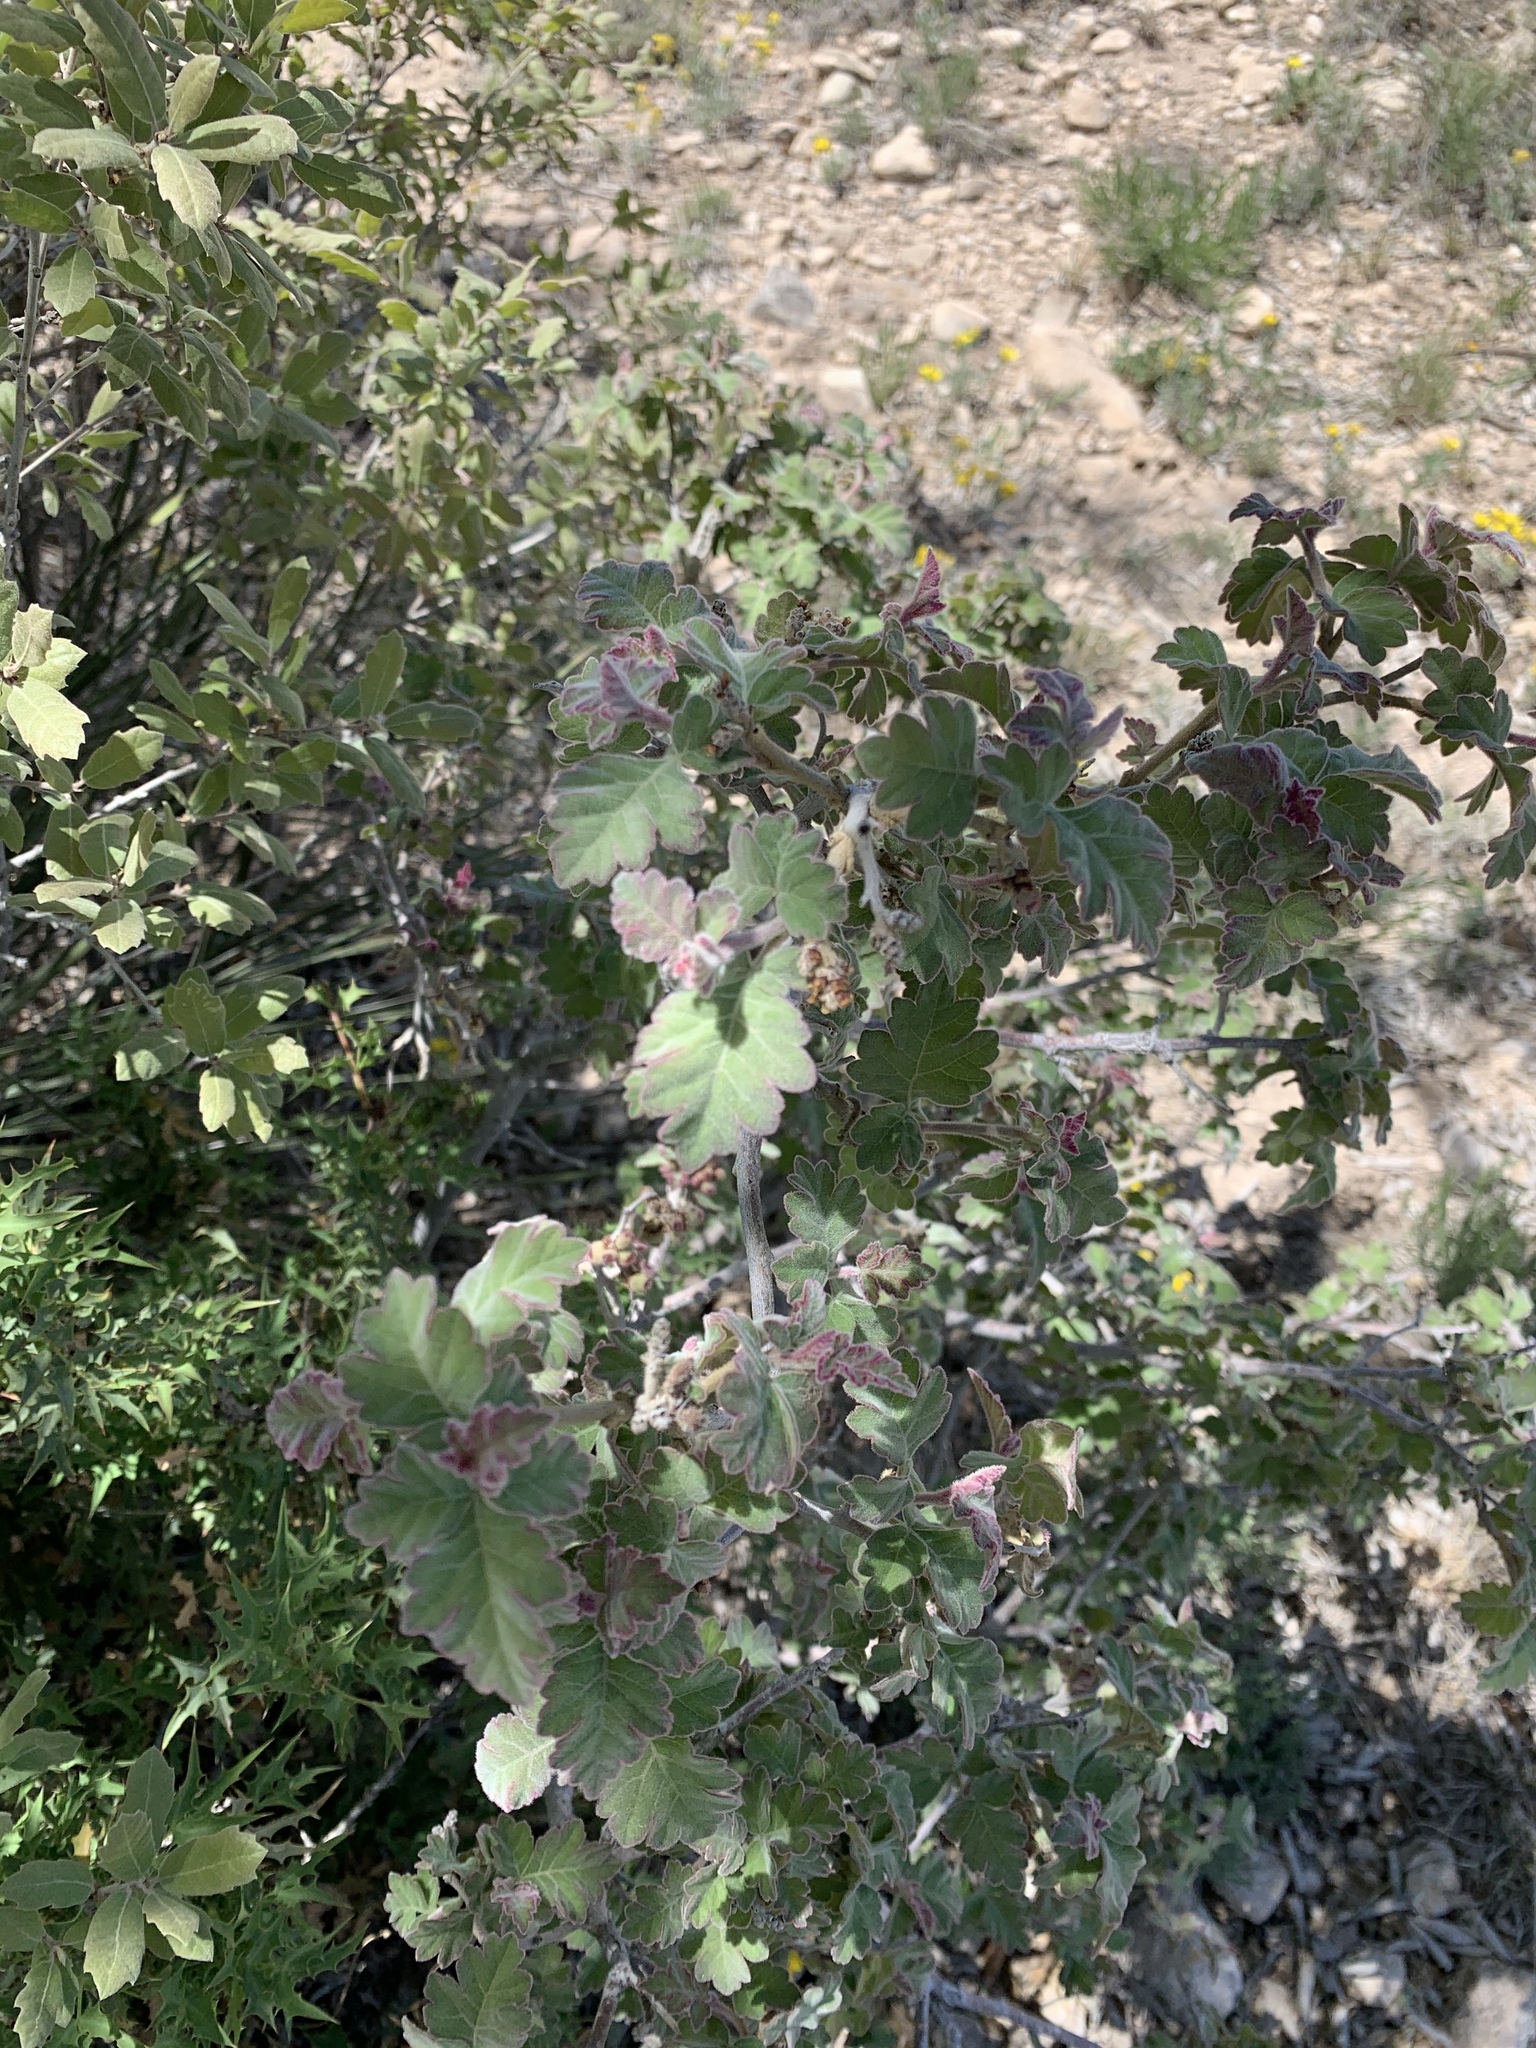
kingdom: Plantae
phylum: Tracheophyta
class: Magnoliopsida
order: Sapindales
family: Anacardiaceae
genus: Rhus
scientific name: Rhus aromatica
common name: Aromatic sumac
